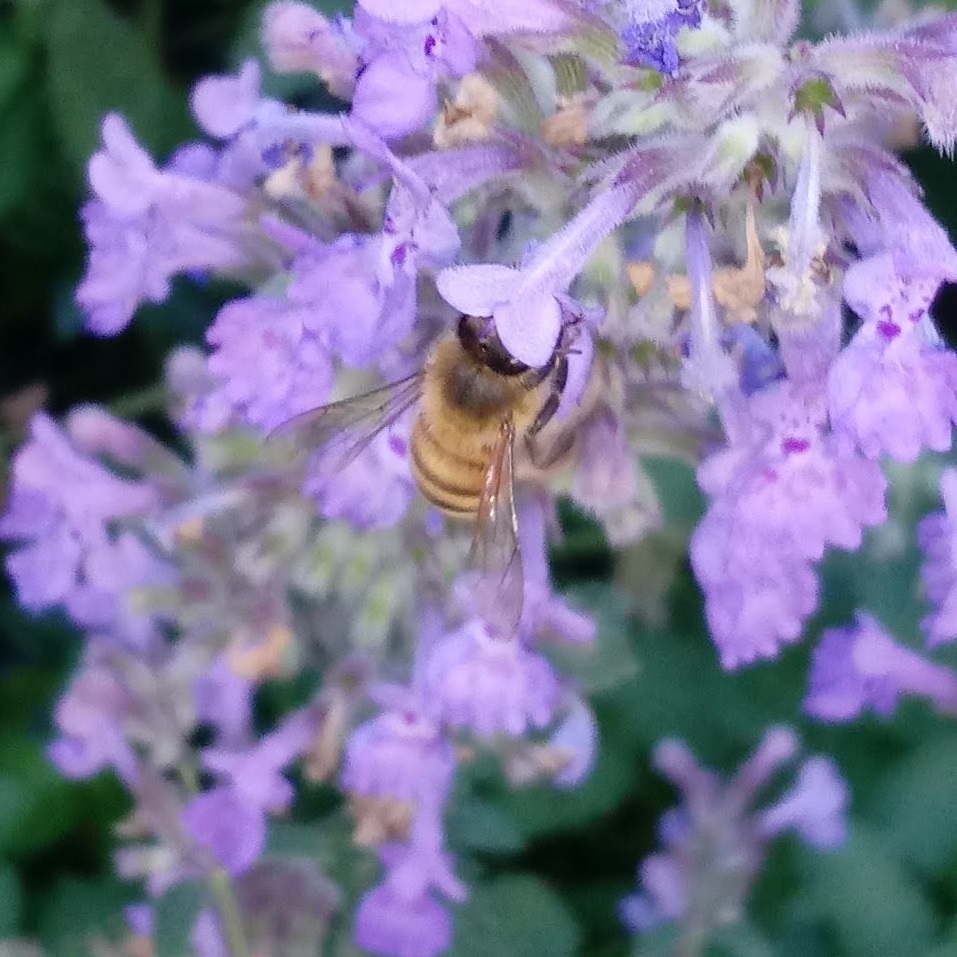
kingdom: Animalia
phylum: Arthropoda
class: Insecta
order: Hymenoptera
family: Apidae
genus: Apis
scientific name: Apis mellifera
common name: Honey bee
